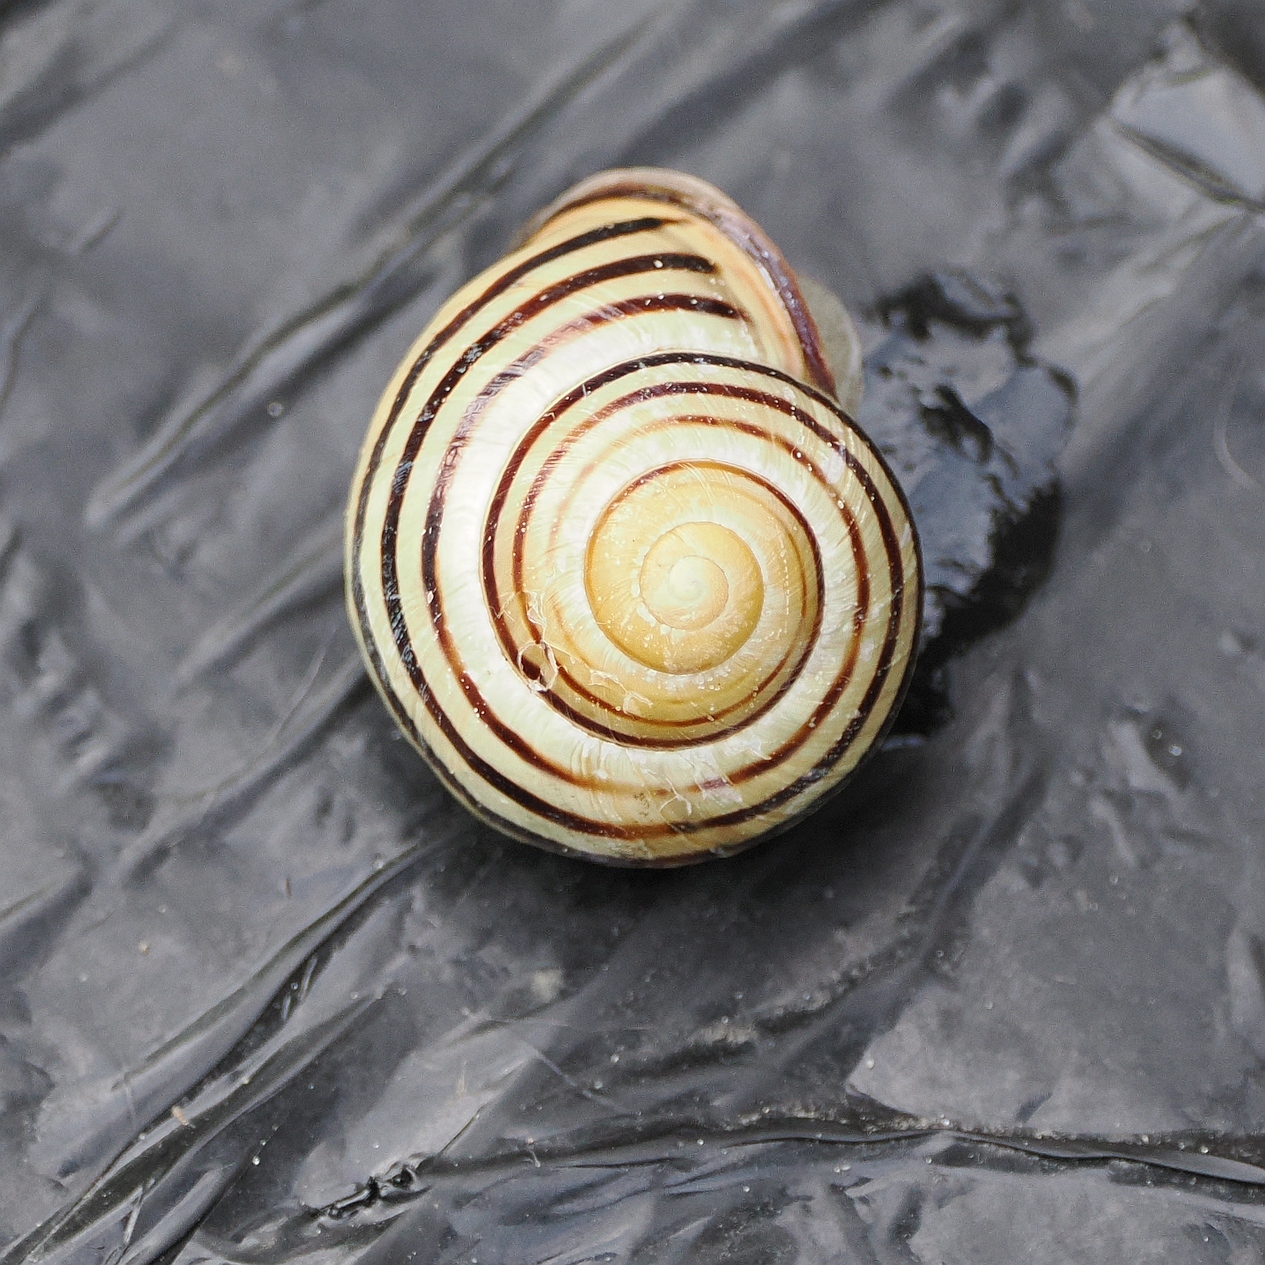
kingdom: Animalia
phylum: Mollusca
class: Gastropoda
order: Stylommatophora
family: Helicidae
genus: Cepaea
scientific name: Cepaea nemoralis
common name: Grovesnail
